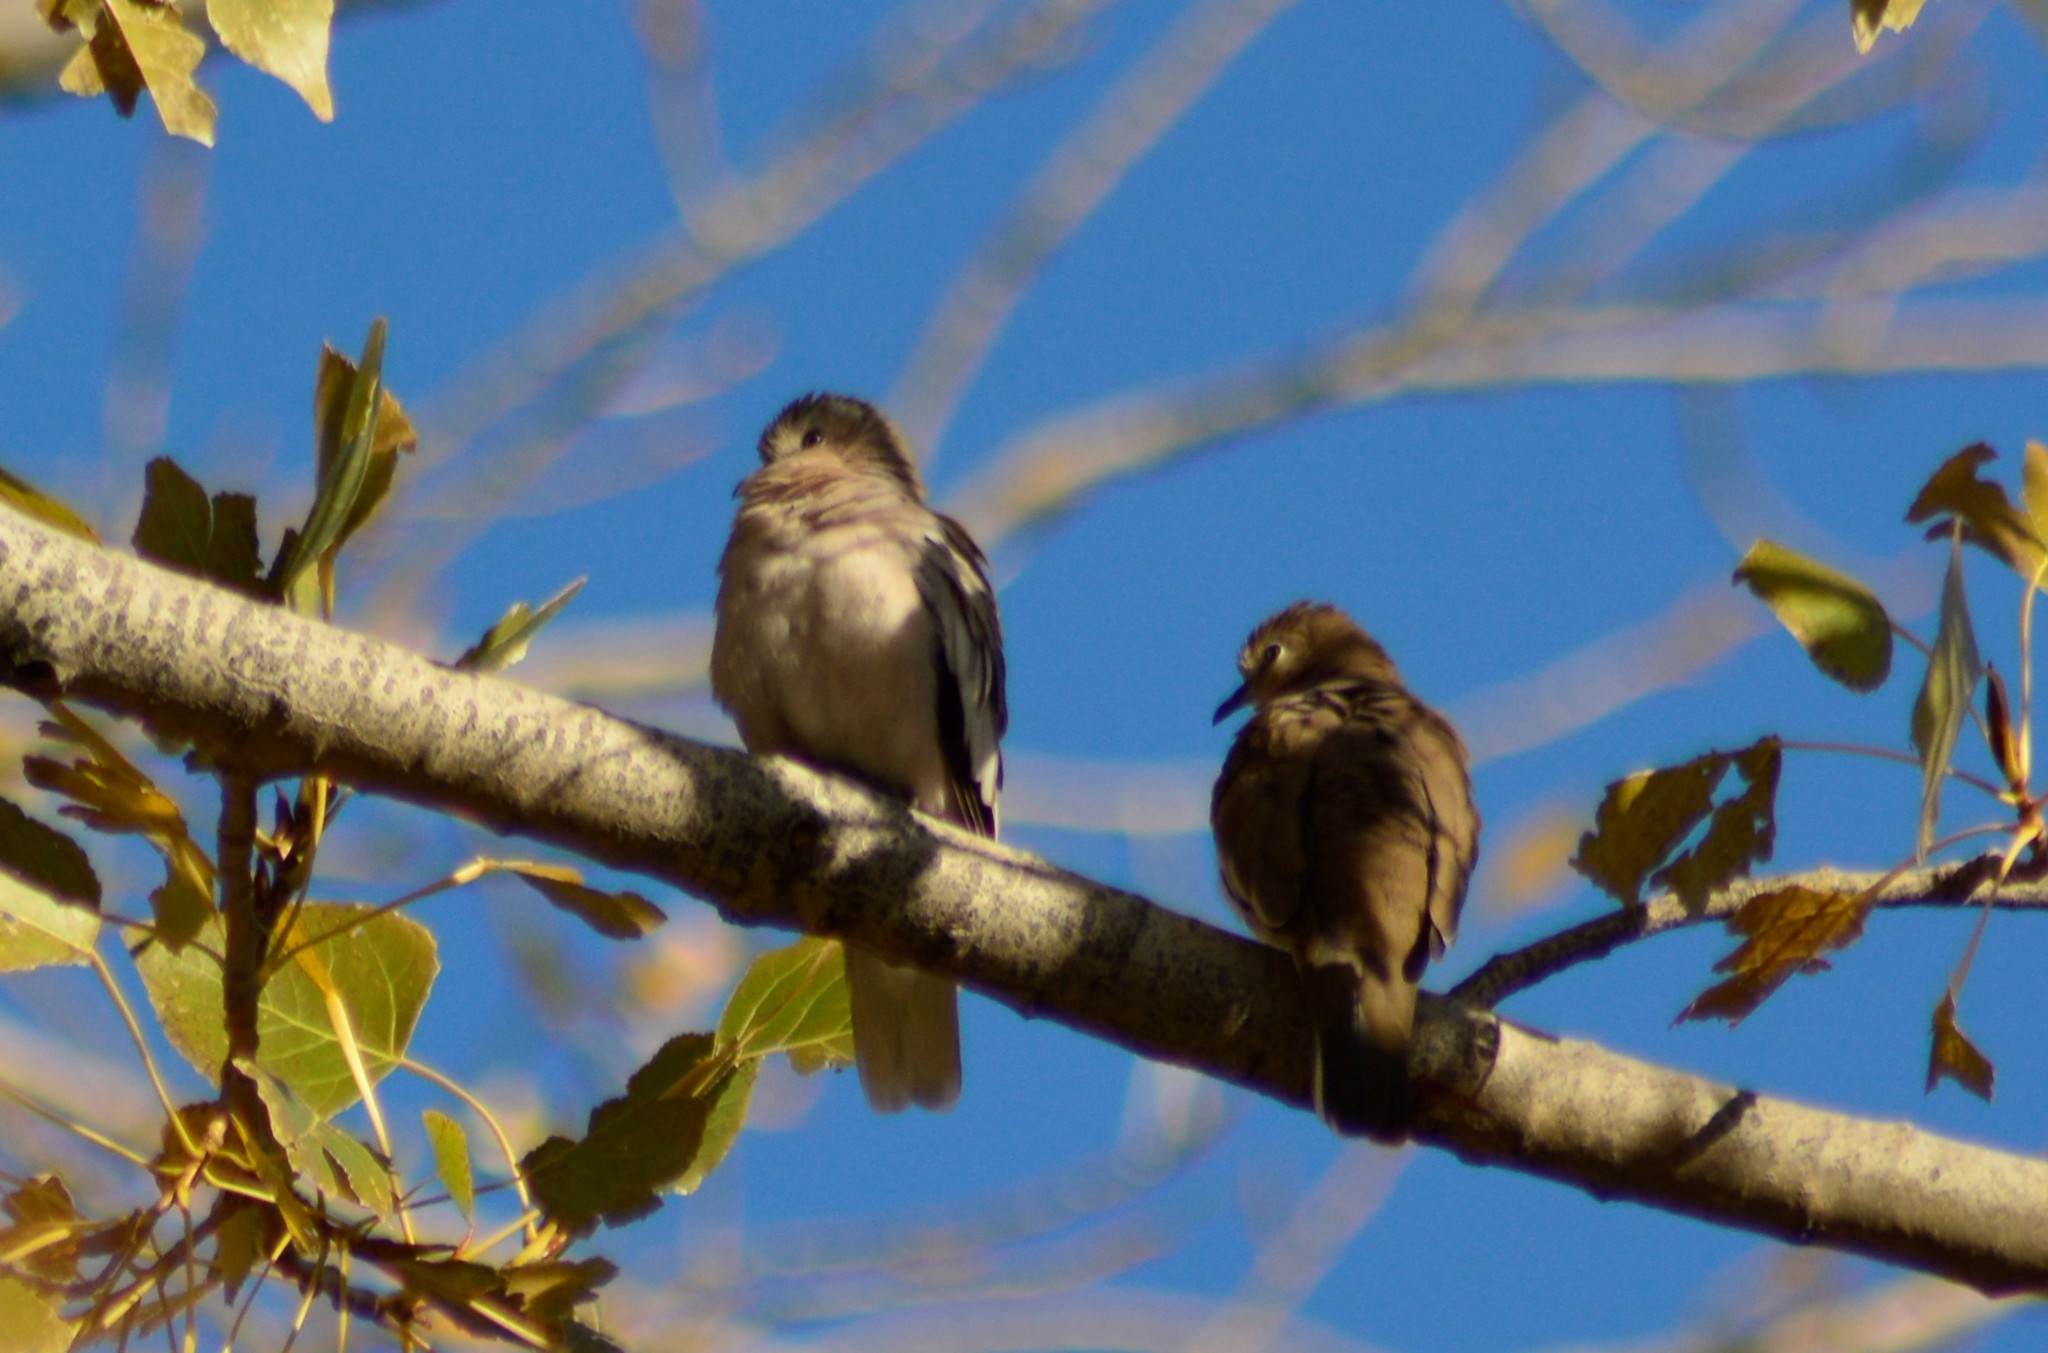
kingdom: Animalia
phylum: Chordata
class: Aves
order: Columbiformes
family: Columbidae
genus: Columbina
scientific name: Columbina picui
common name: Picui ground dove
